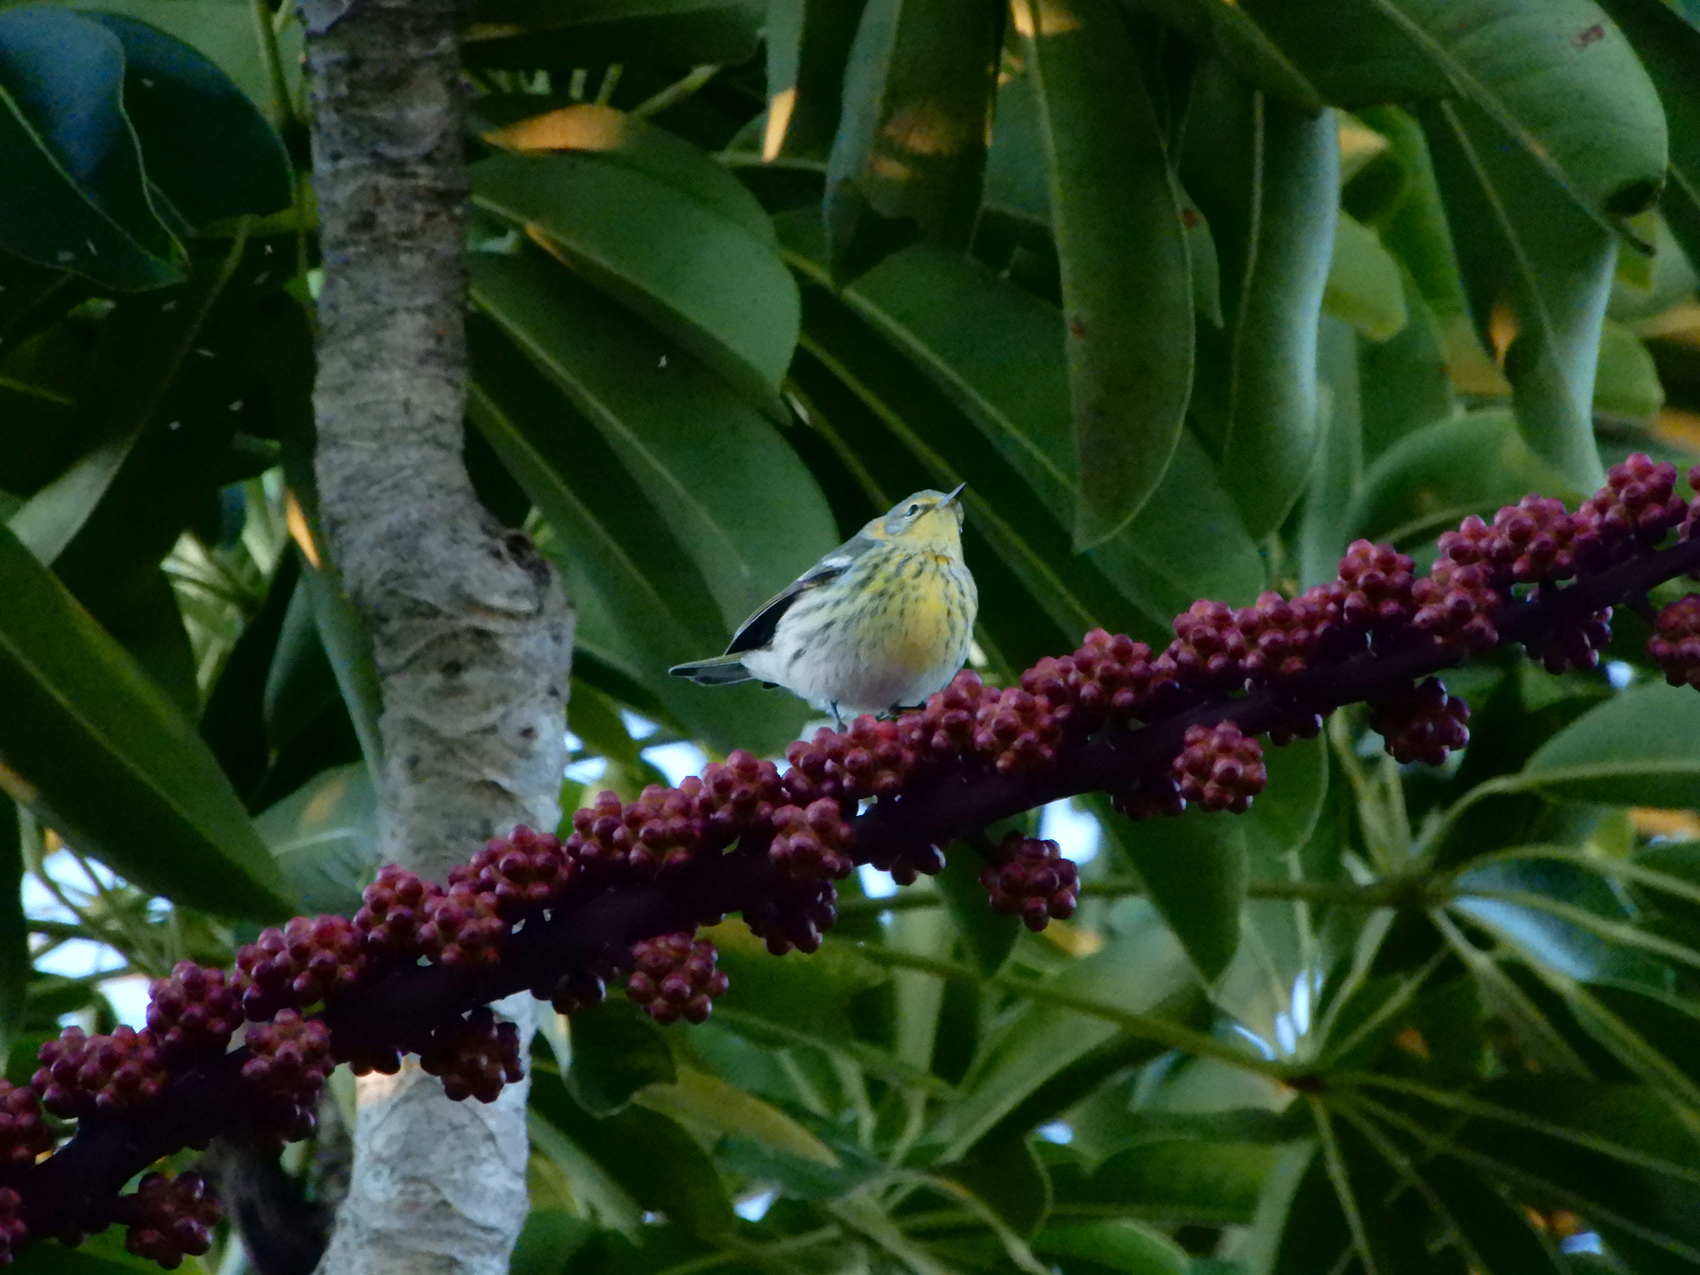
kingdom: Animalia
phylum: Chordata
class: Aves
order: Passeriformes
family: Parulidae
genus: Setophaga
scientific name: Setophaga tigrina
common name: Cape may warbler
